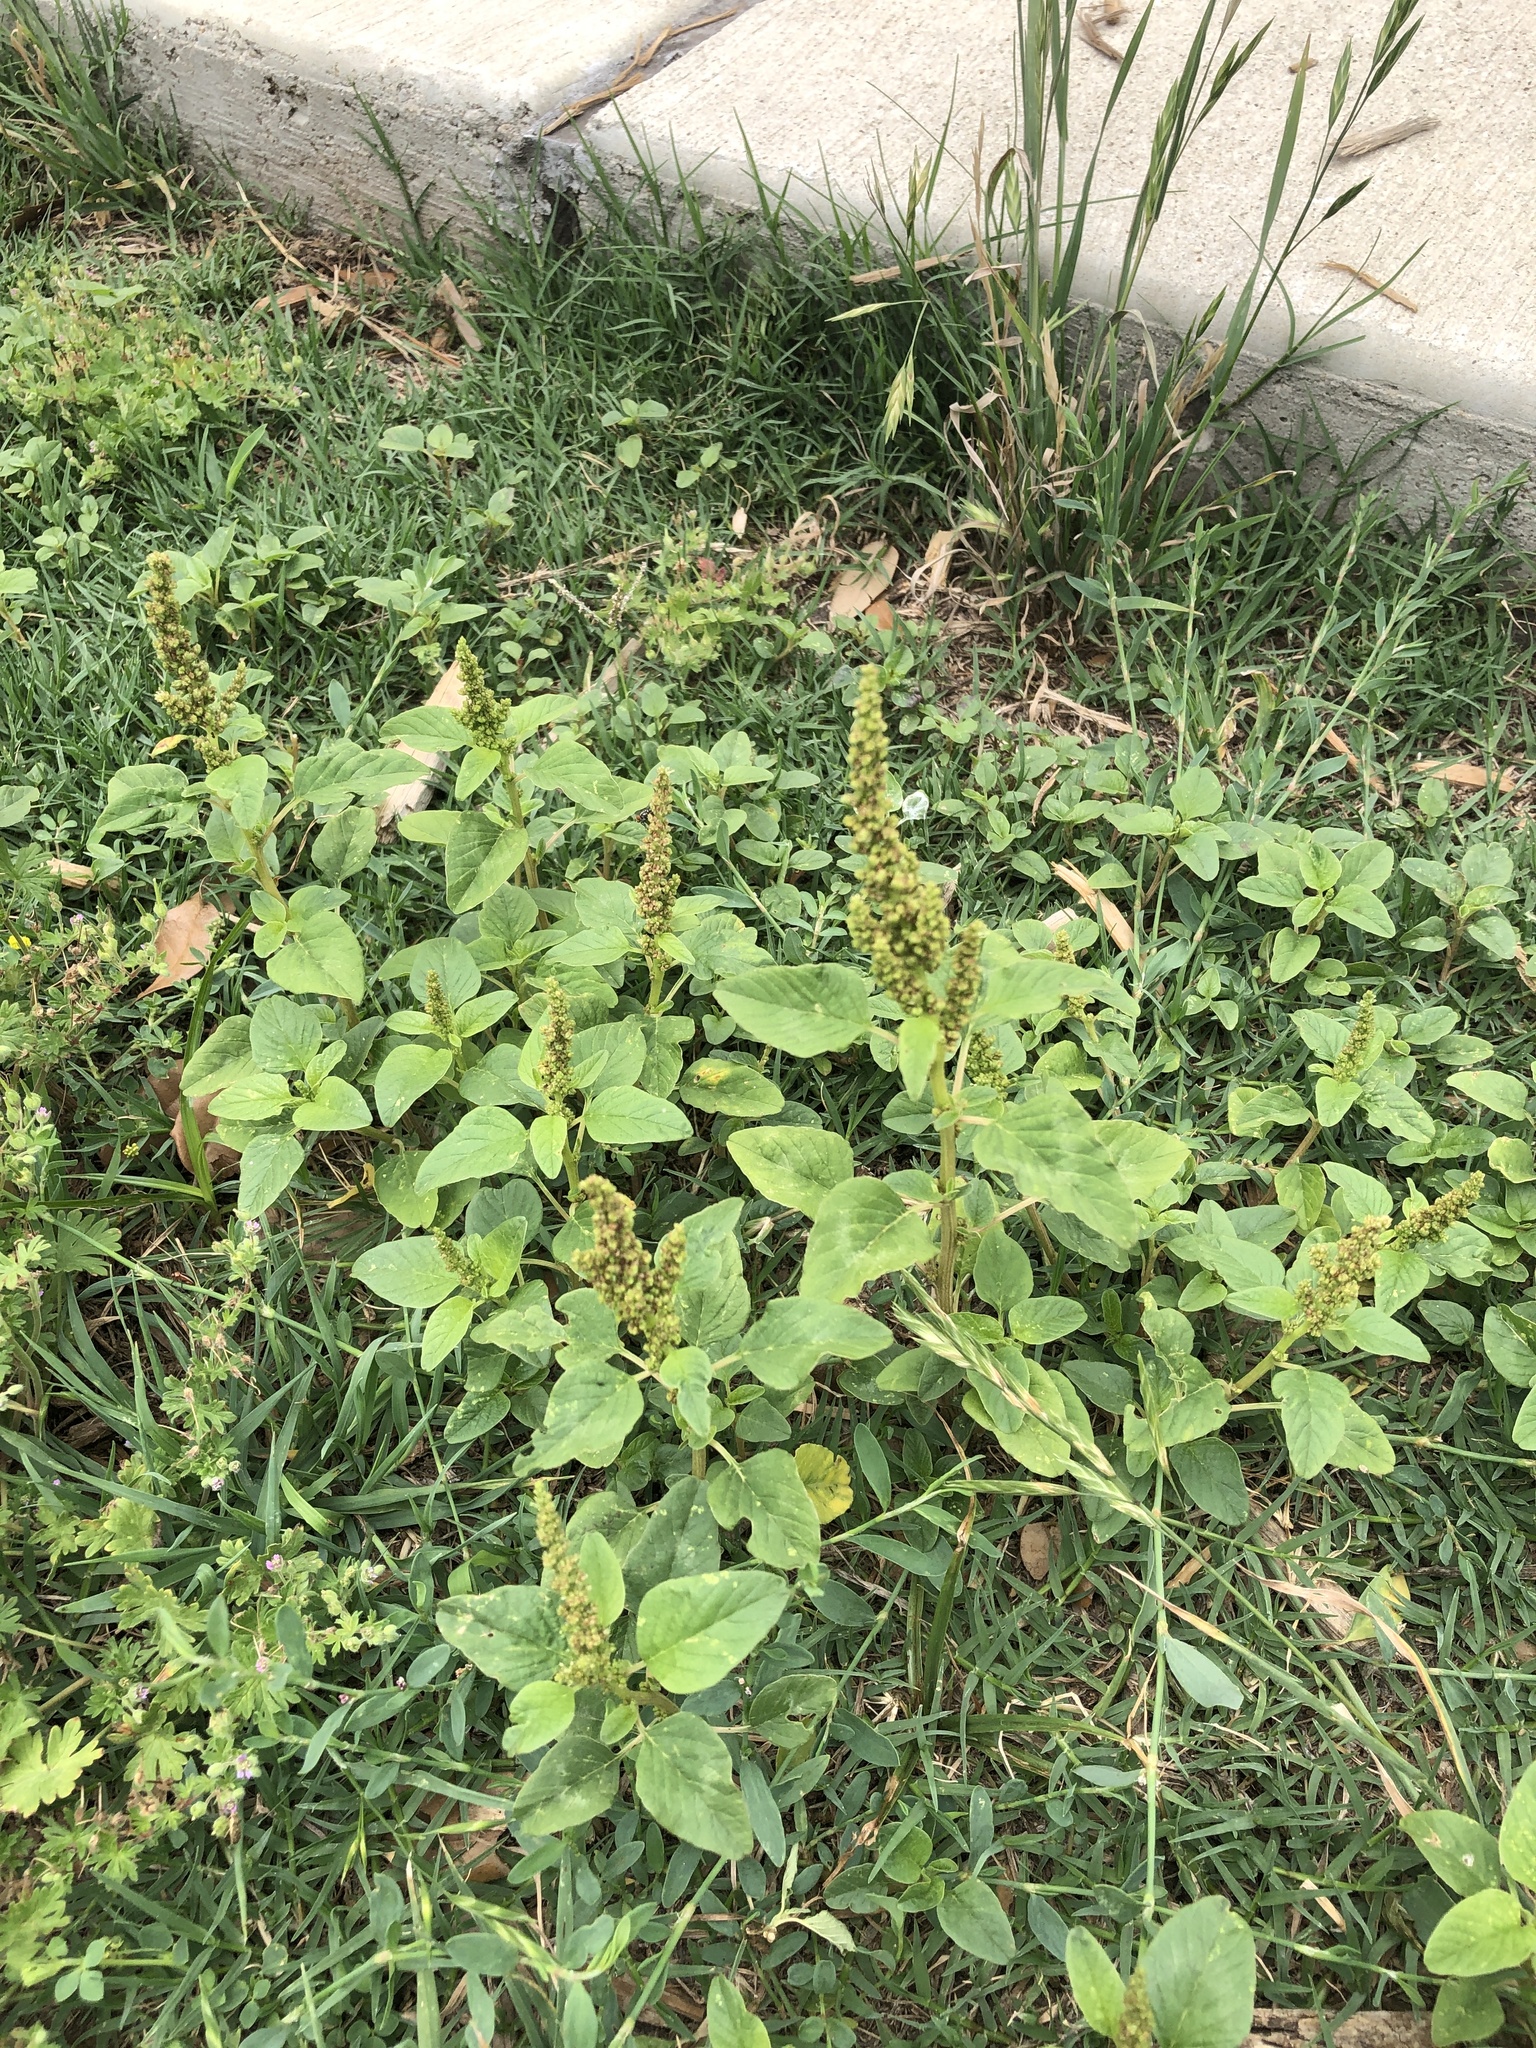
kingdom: Plantae
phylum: Tracheophyta
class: Magnoliopsida
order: Caryophyllales
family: Amaranthaceae
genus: Amaranthus
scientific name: Amaranthus palmeri
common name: Dioecious amaranth
